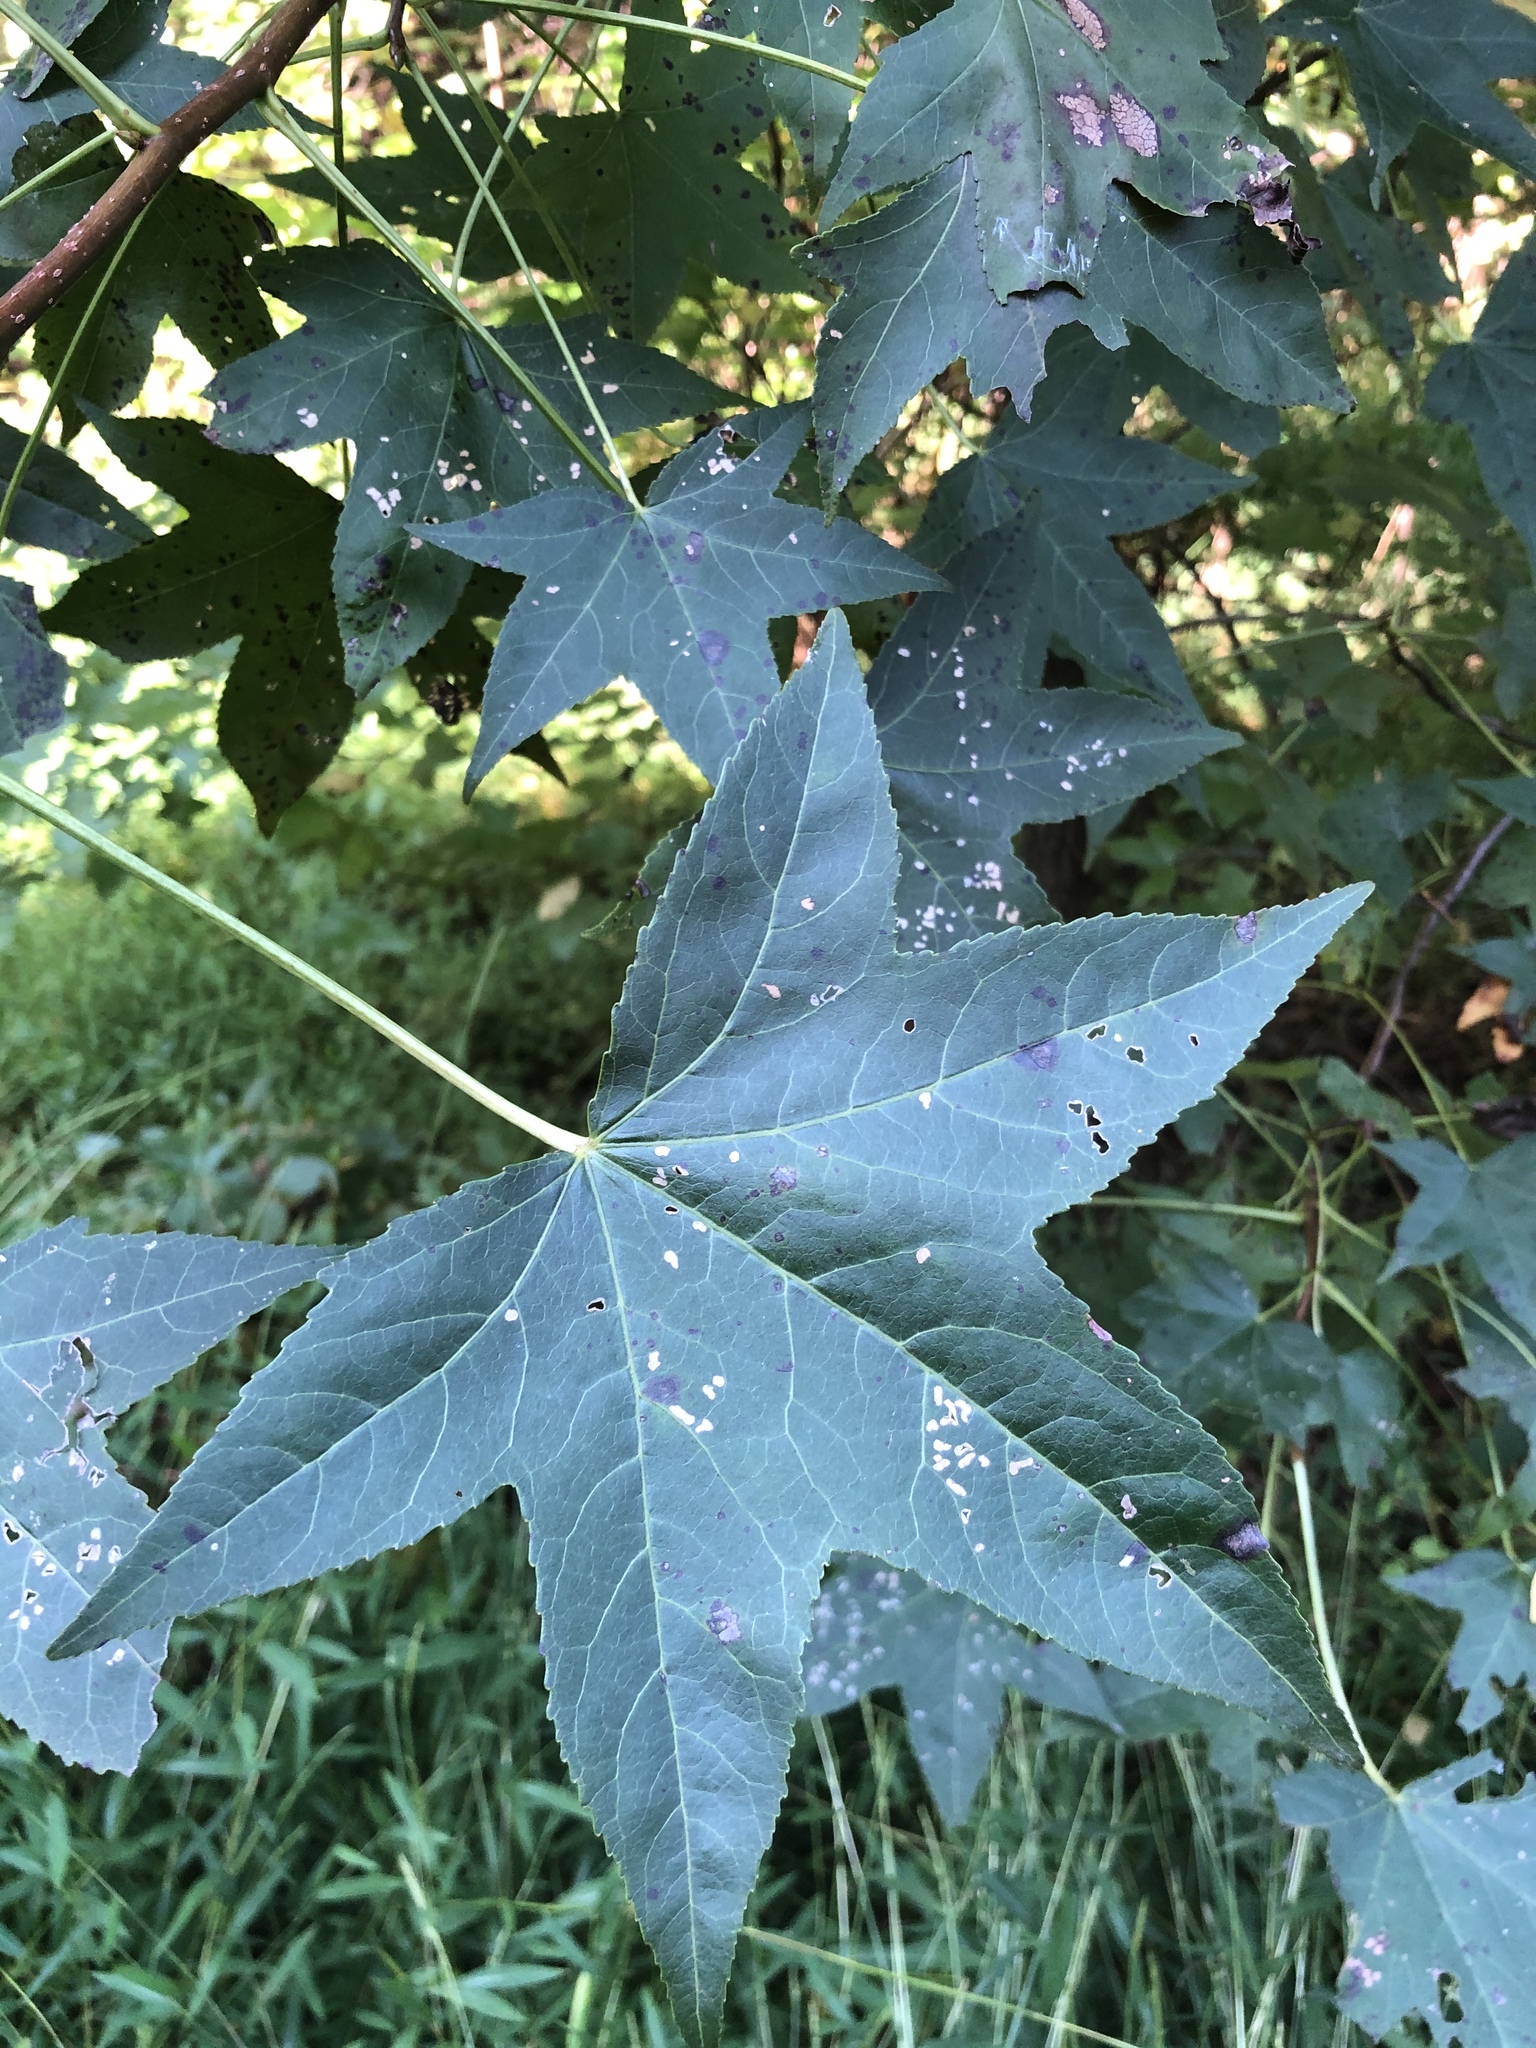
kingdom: Plantae
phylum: Tracheophyta
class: Magnoliopsida
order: Saxifragales
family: Altingiaceae
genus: Liquidambar
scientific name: Liquidambar styraciflua
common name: Sweet gum
